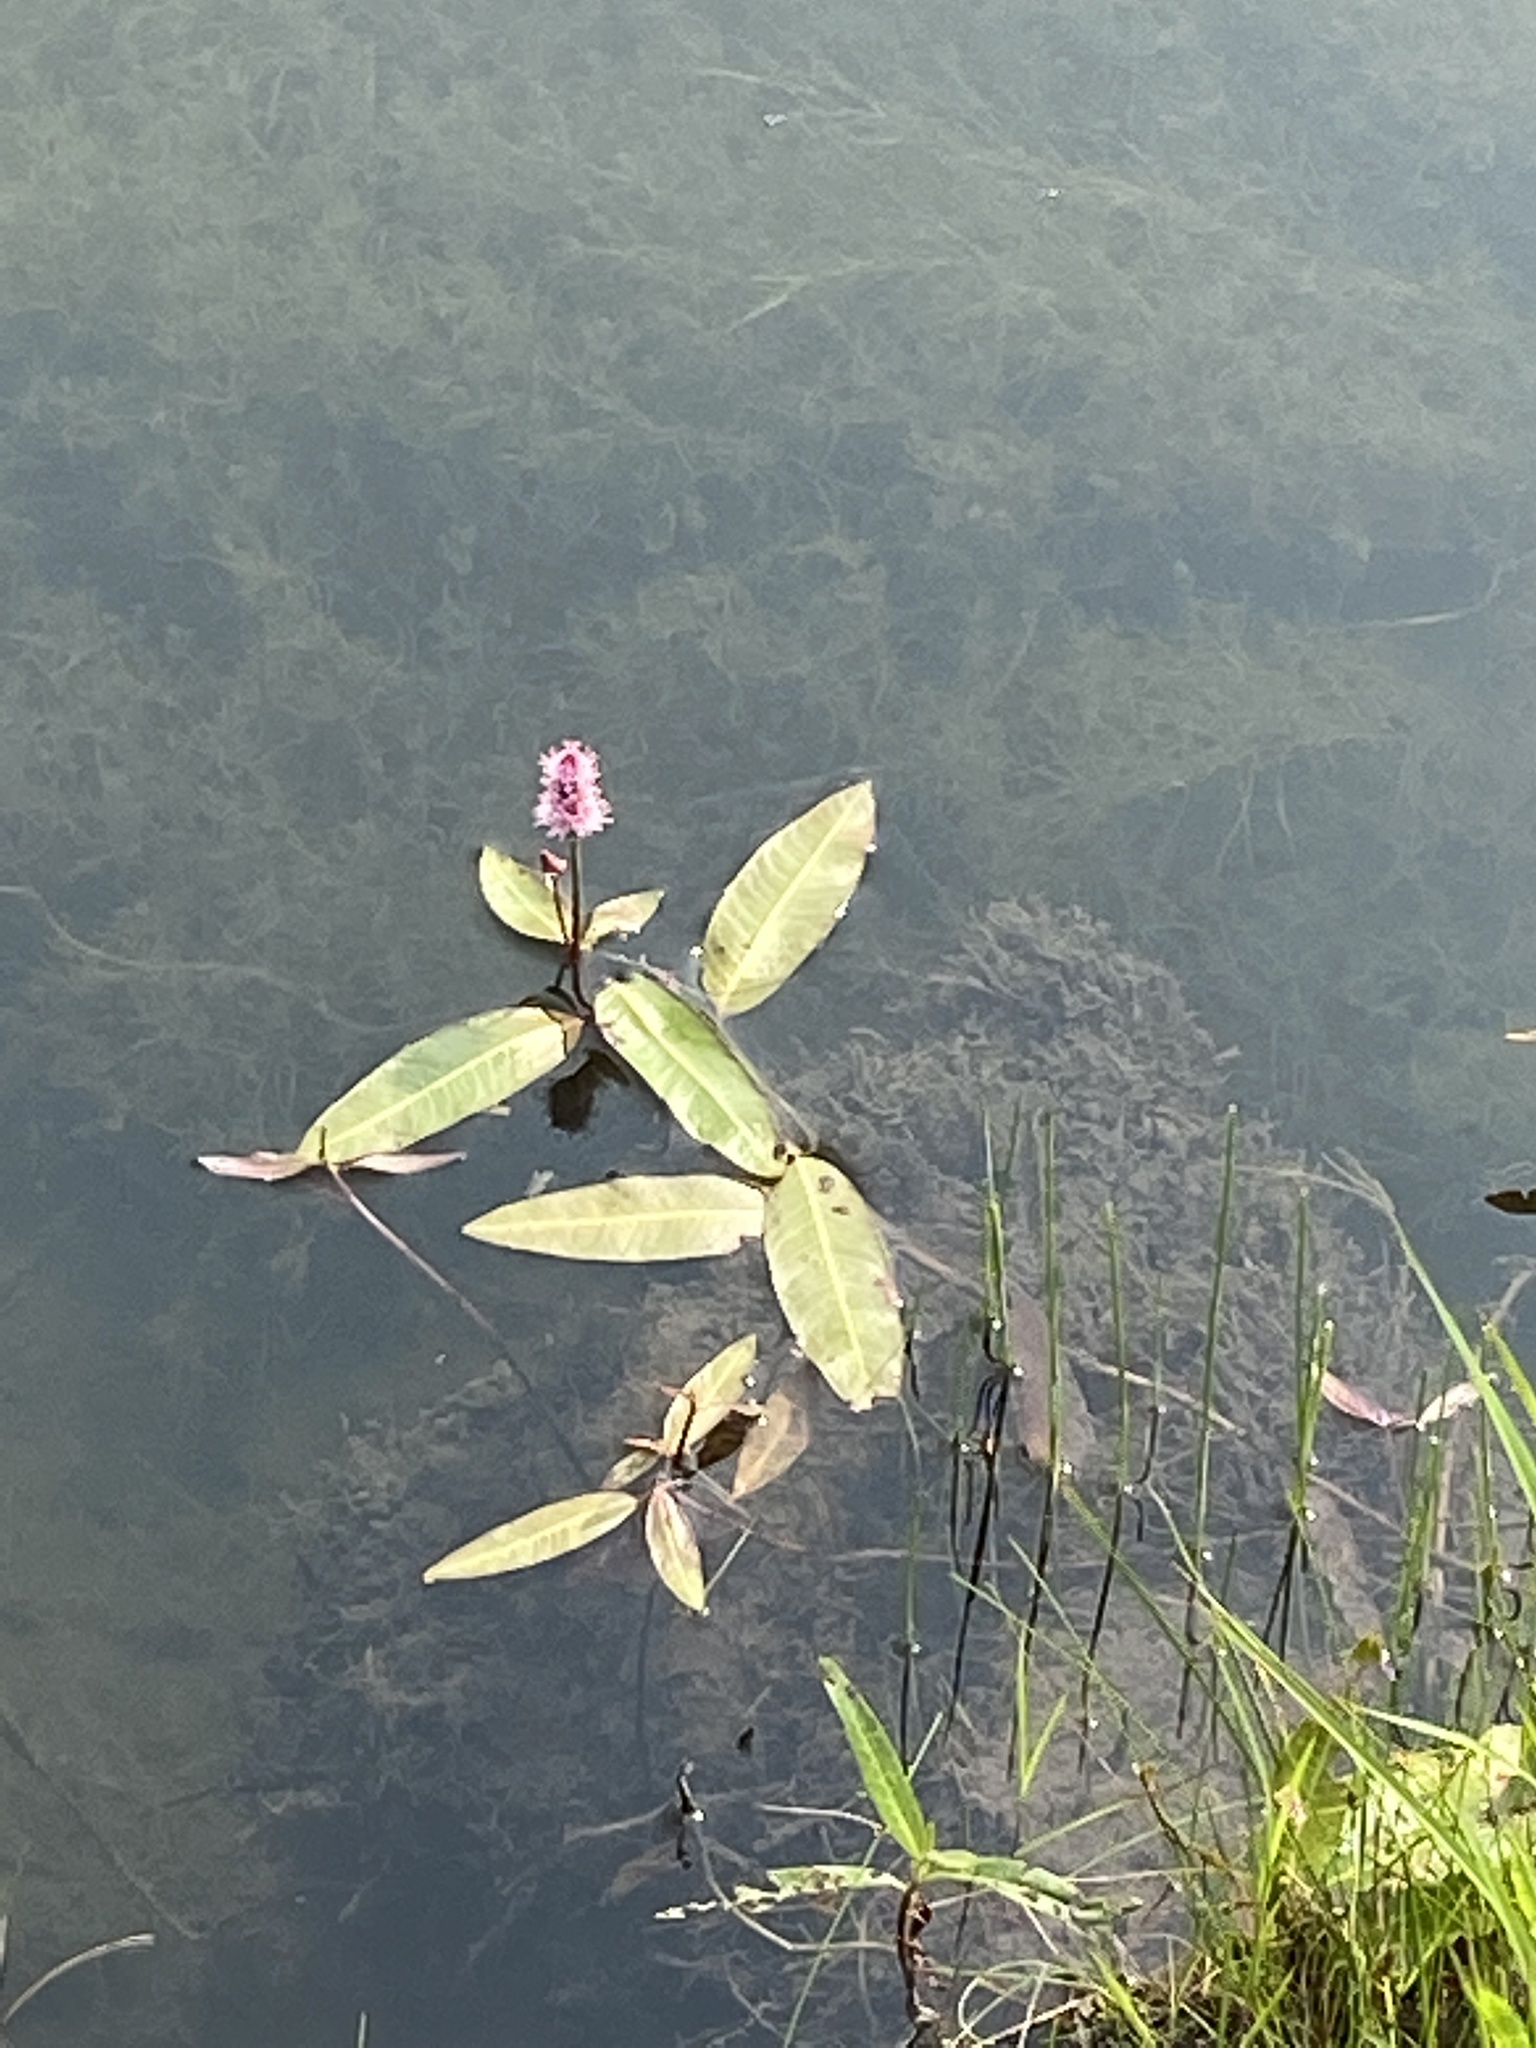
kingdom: Plantae
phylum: Tracheophyta
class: Magnoliopsida
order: Caryophyllales
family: Polygonaceae
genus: Persicaria
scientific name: Persicaria amphibia
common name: Amphibious bistort
